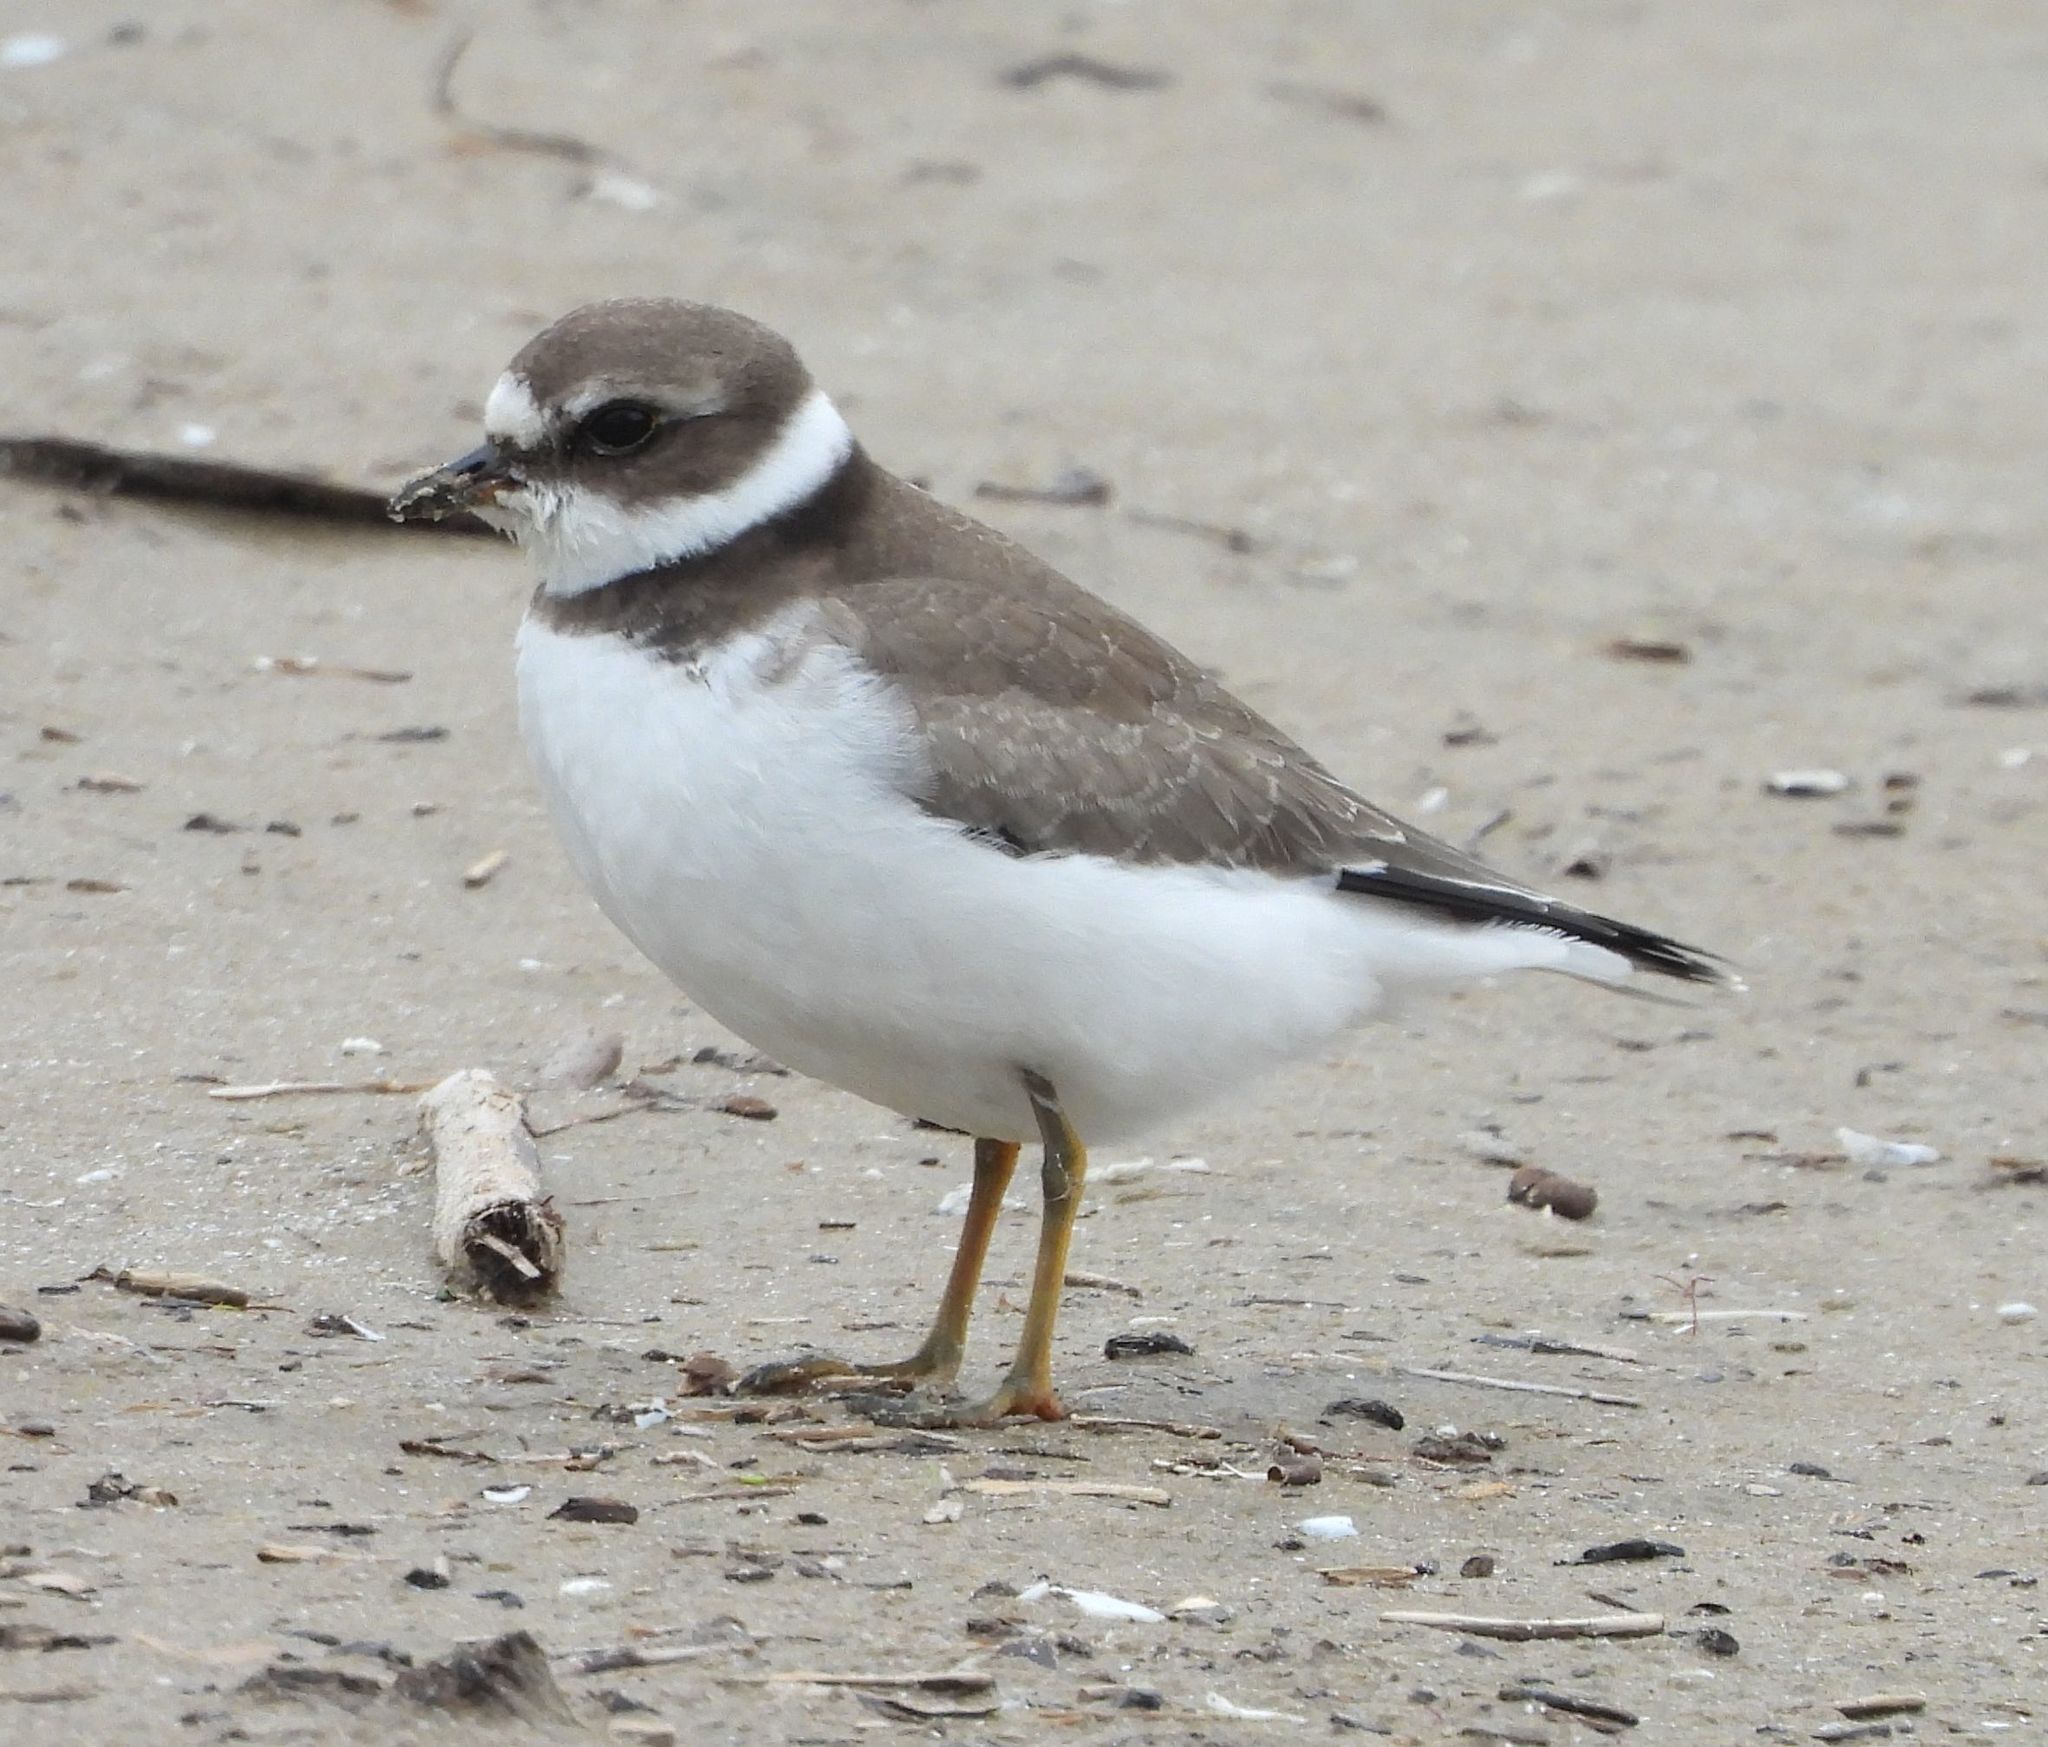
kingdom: Animalia
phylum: Chordata
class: Aves
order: Charadriiformes
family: Charadriidae
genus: Charadrius
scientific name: Charadrius semipalmatus
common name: Semipalmated plover
